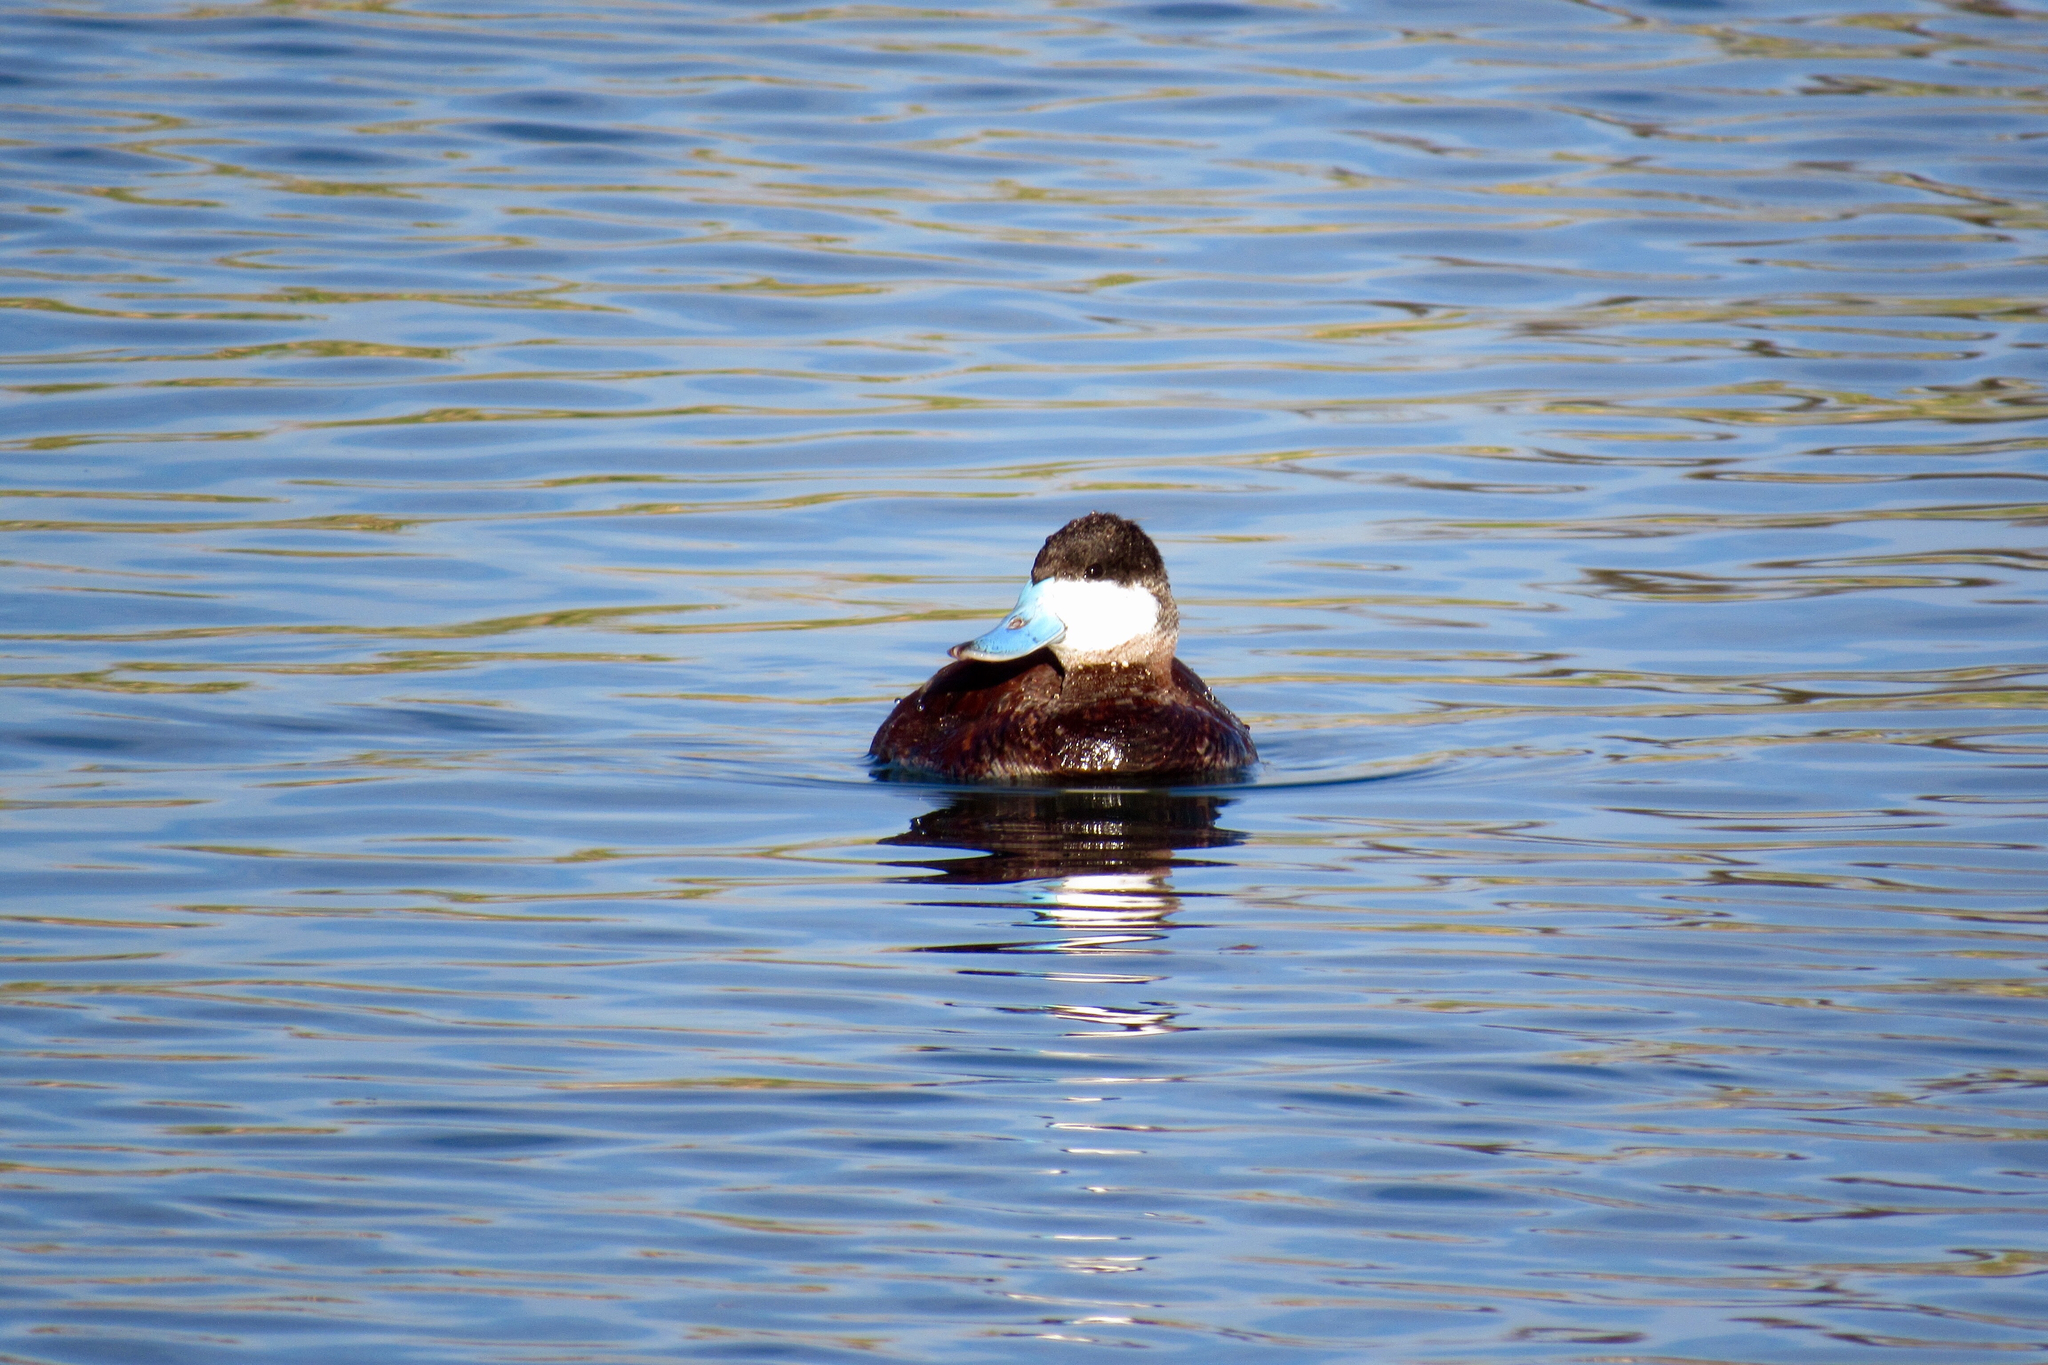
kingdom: Animalia
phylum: Chordata
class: Aves
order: Anseriformes
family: Anatidae
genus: Oxyura
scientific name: Oxyura jamaicensis
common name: Ruddy duck
